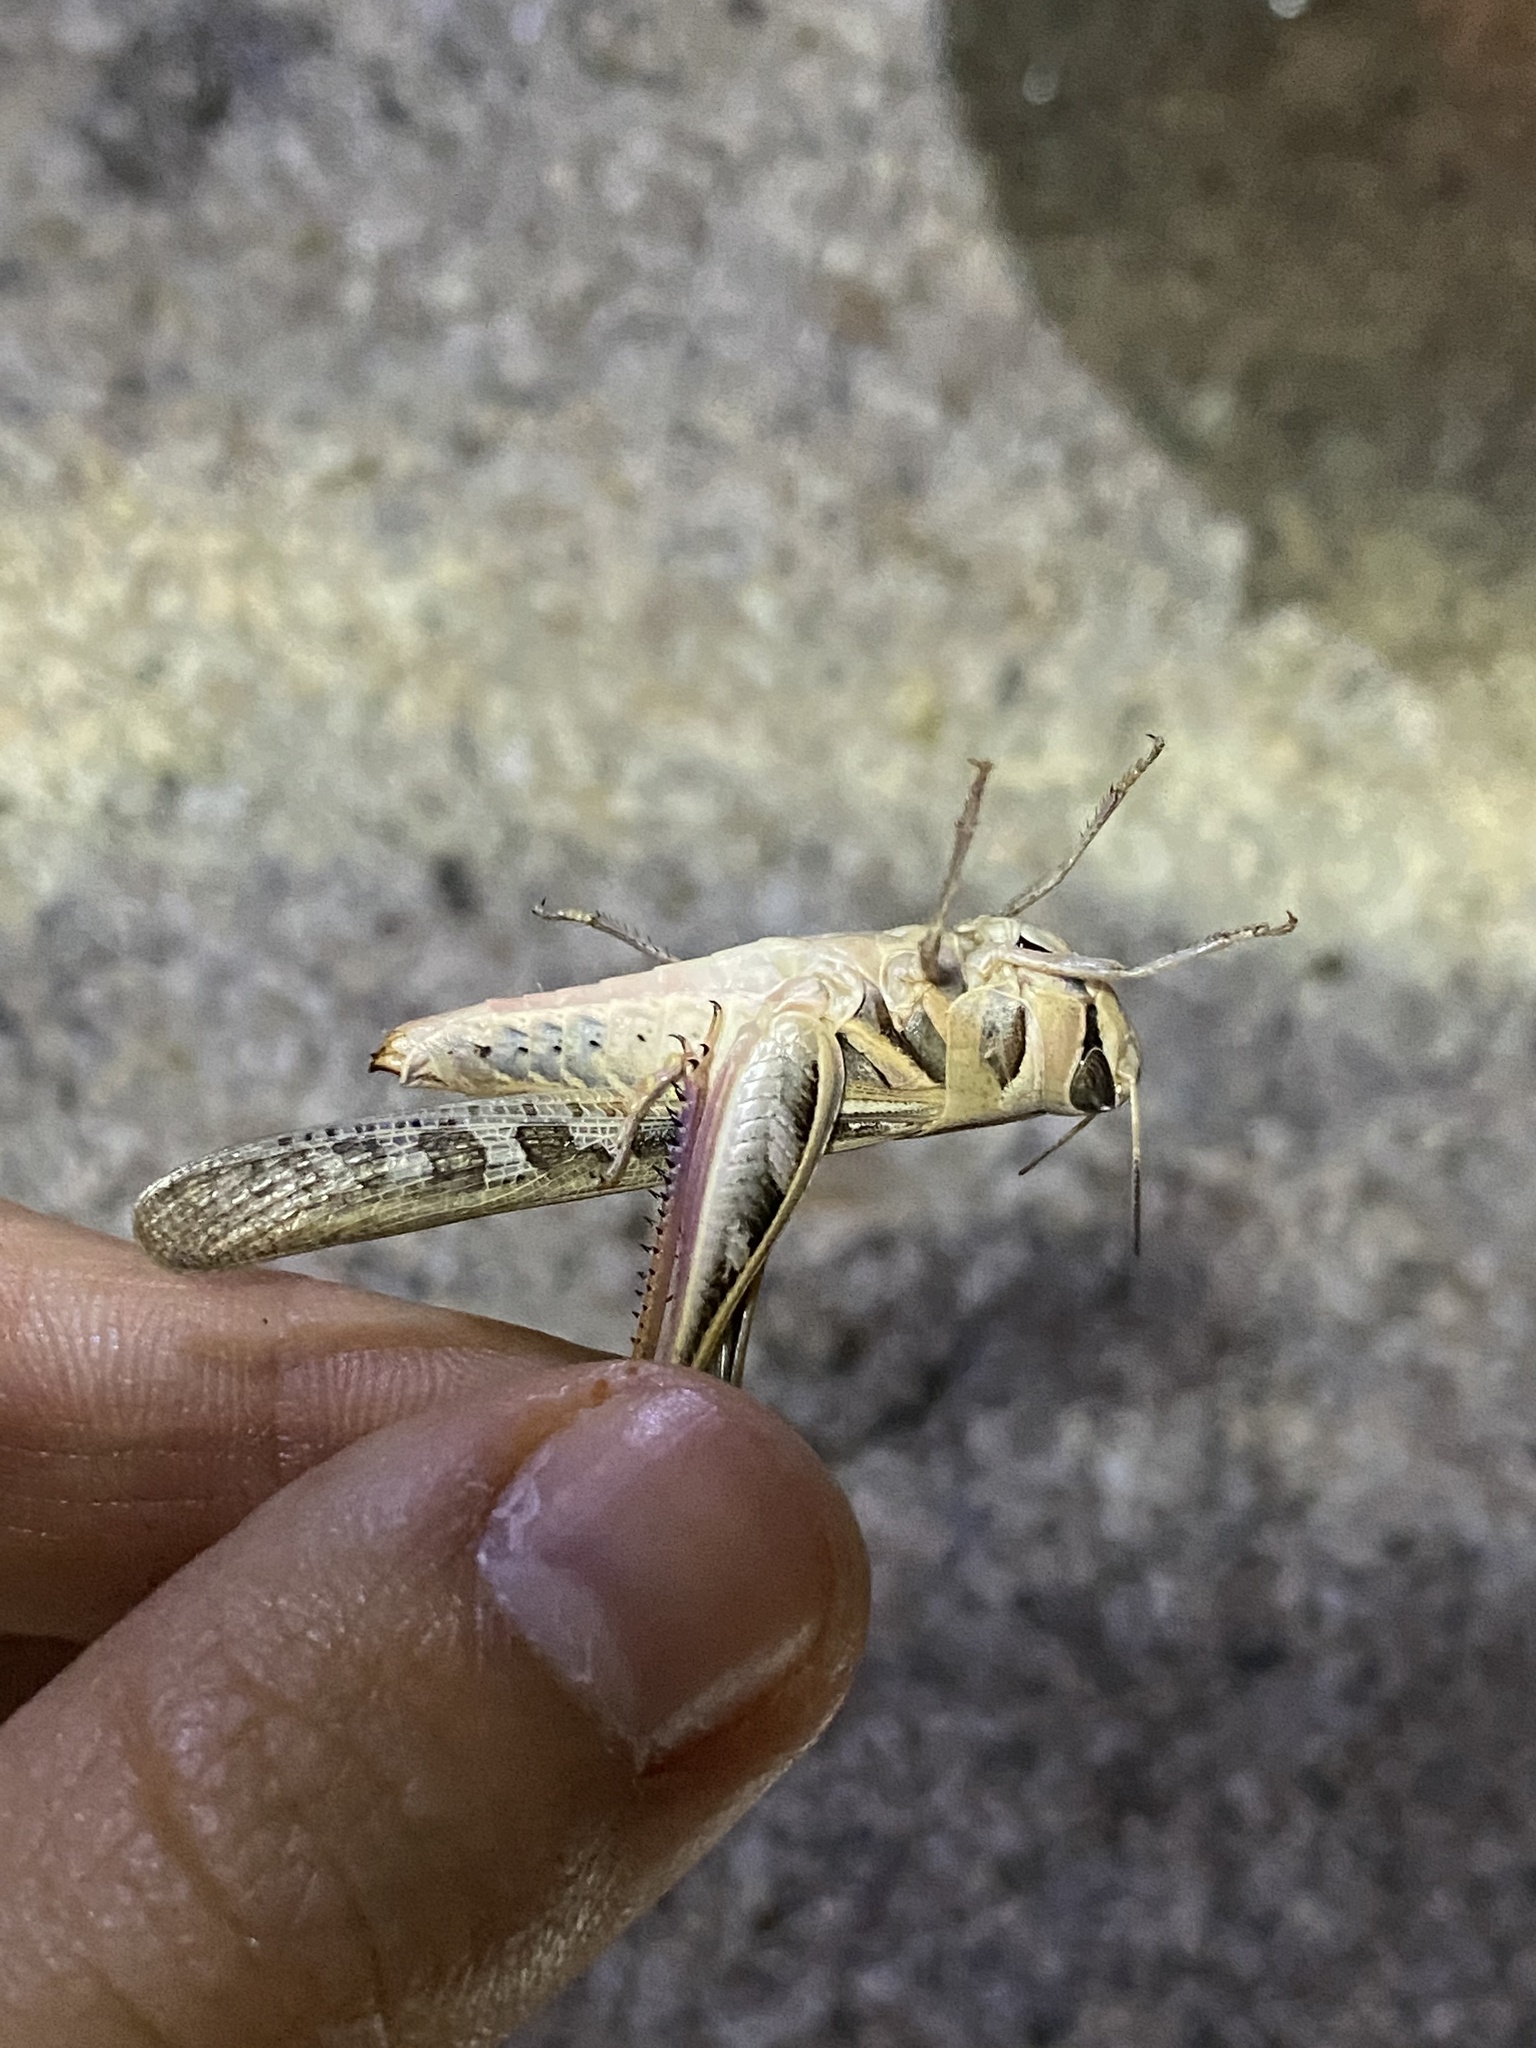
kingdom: Animalia
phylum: Arthropoda
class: Insecta
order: Orthoptera
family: Acrididae
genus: Rhammatocerus
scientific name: Rhammatocerus viatorius
